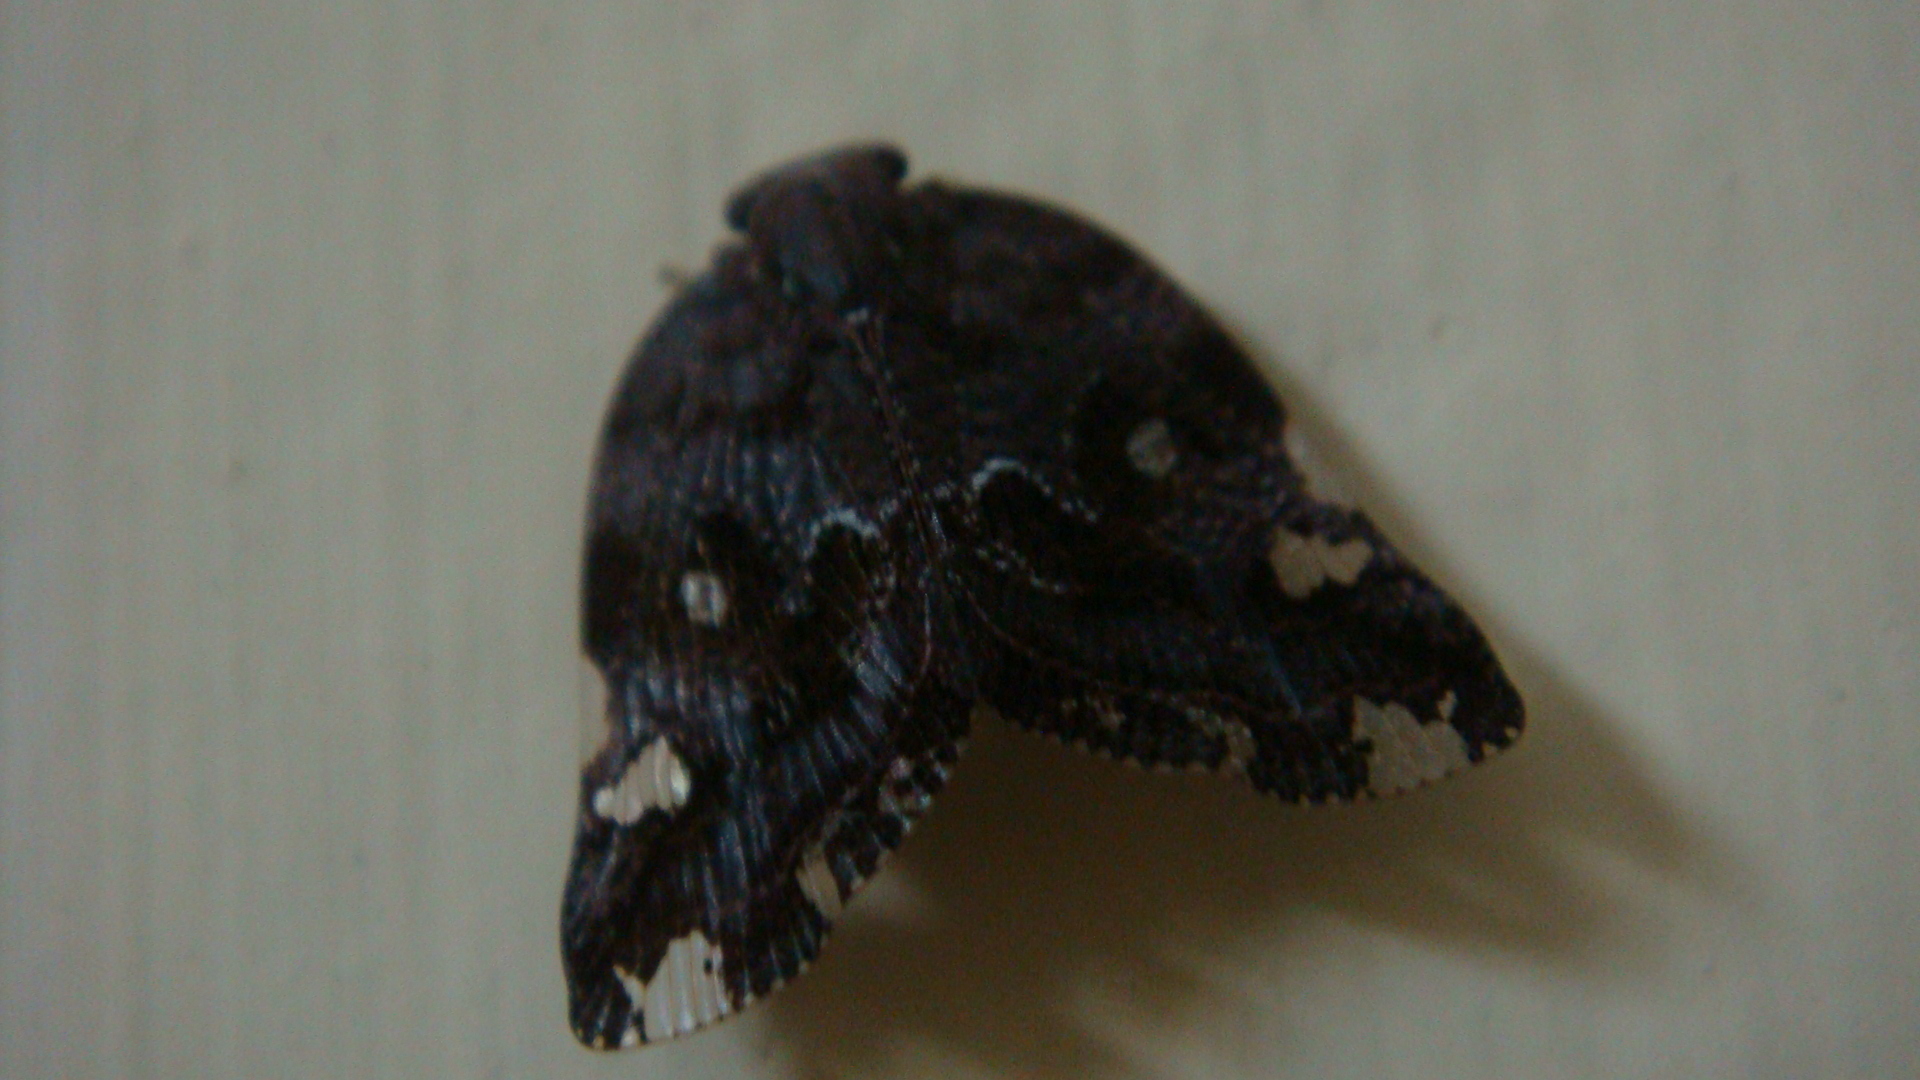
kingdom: Animalia
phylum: Arthropoda
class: Insecta
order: Hemiptera
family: Ricaniidae
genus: Ricania
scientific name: Ricania speculum
